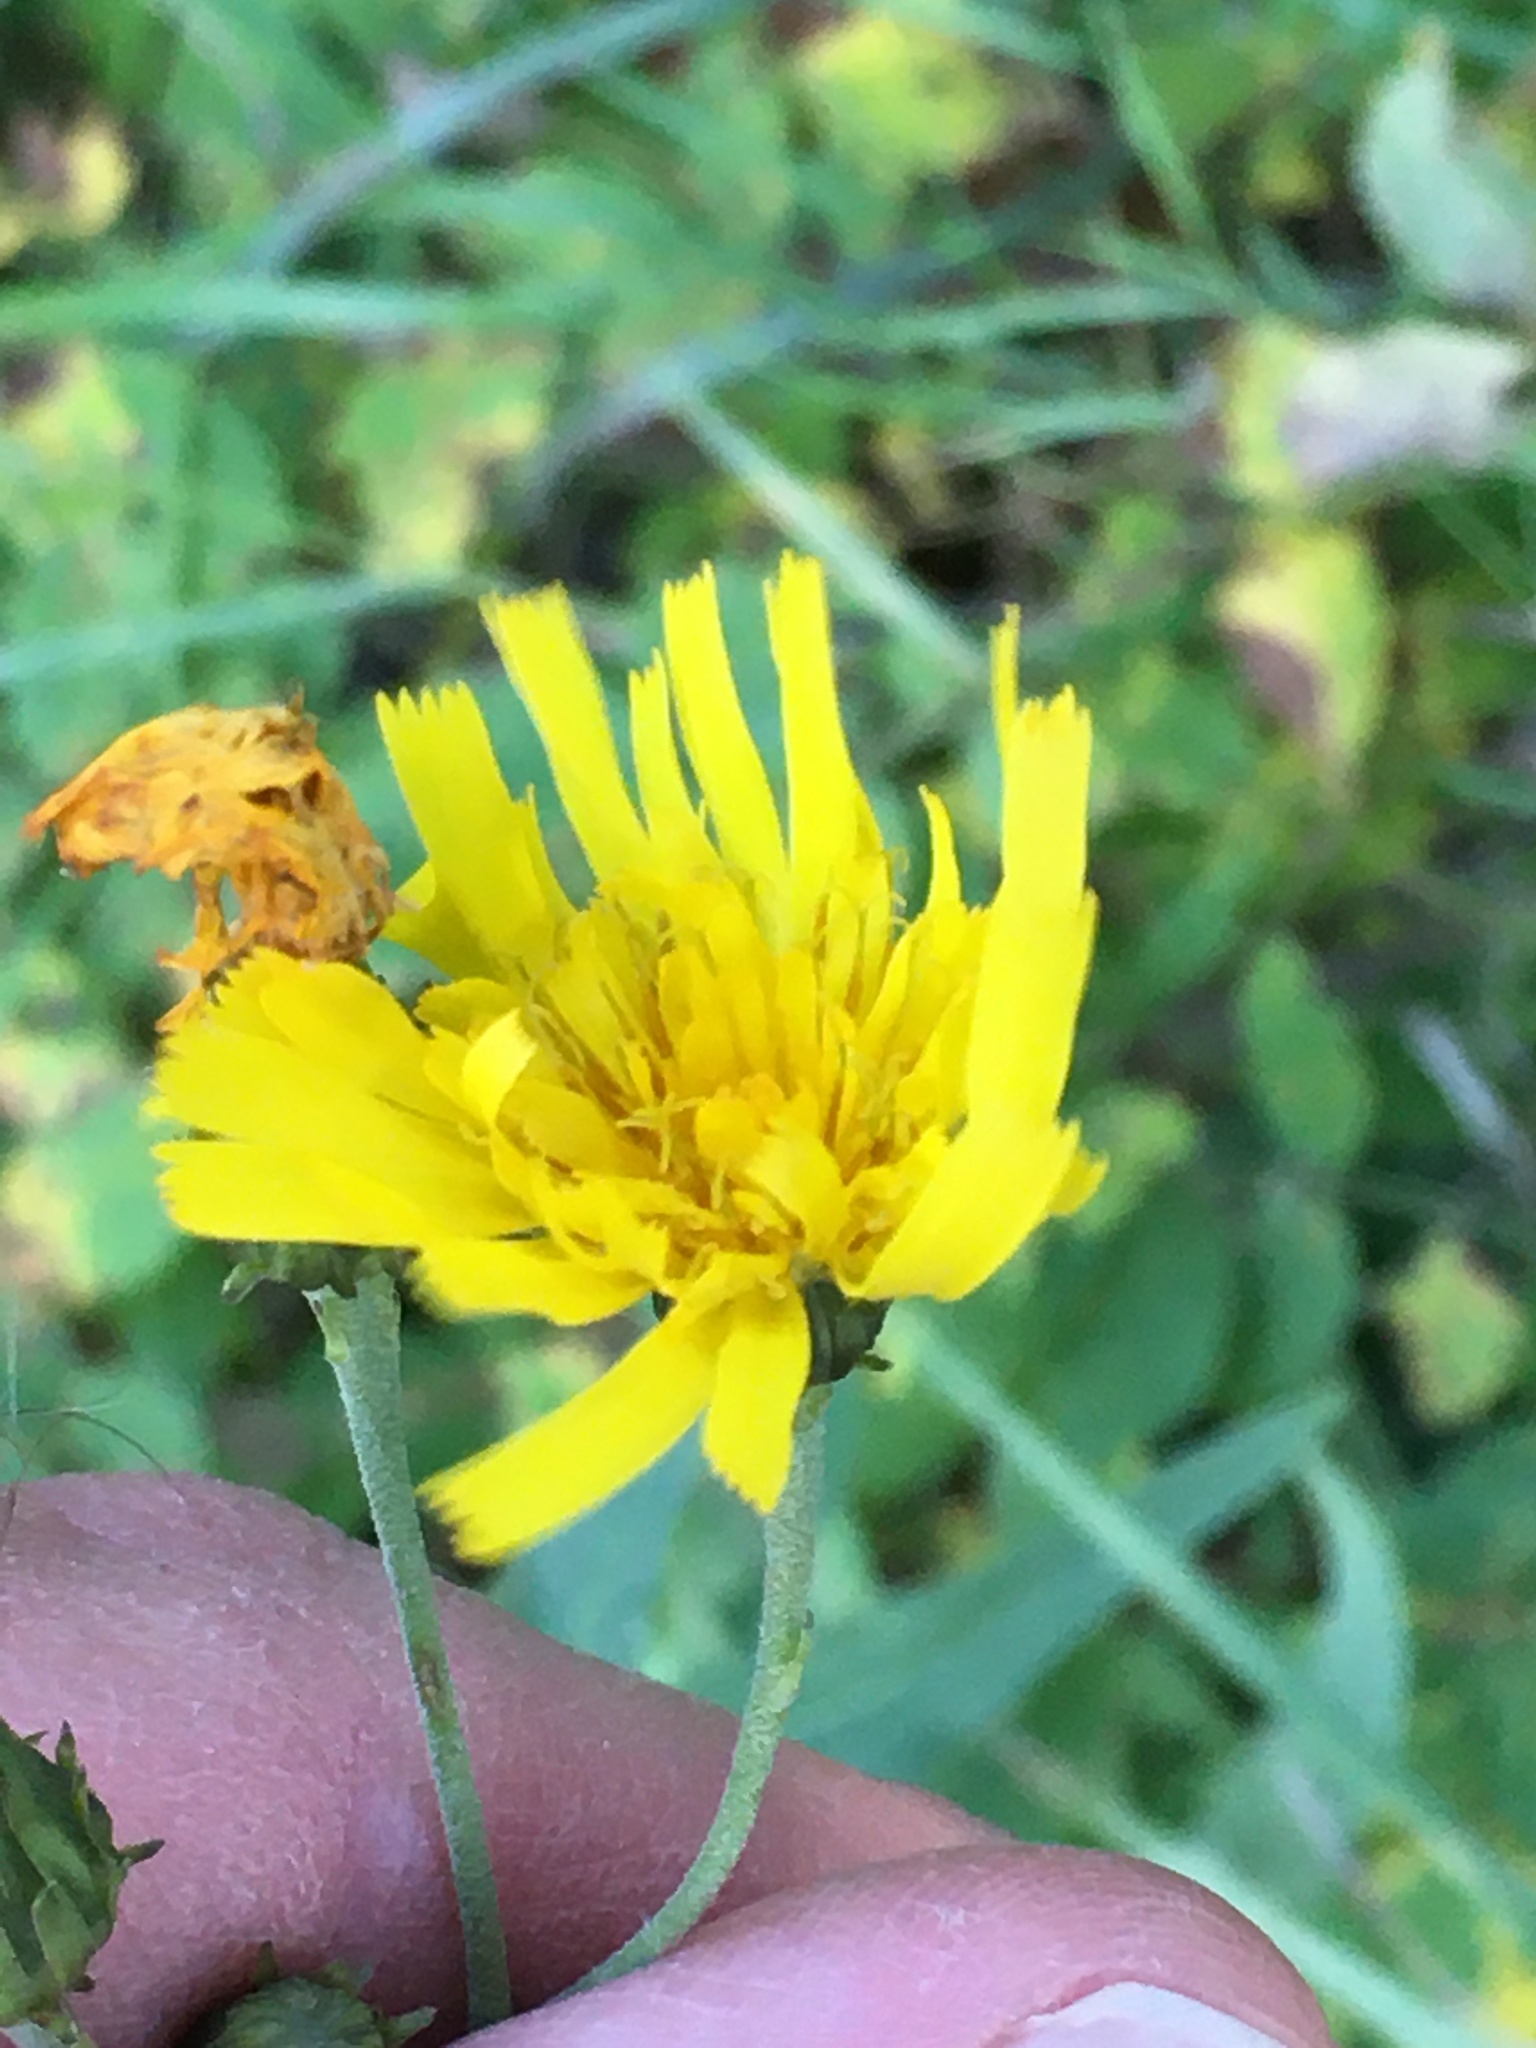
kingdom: Plantae
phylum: Tracheophyta
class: Magnoliopsida
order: Asterales
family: Asteraceae
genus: Hieracium
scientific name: Hieracium umbellatum
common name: Northern hawkweed
